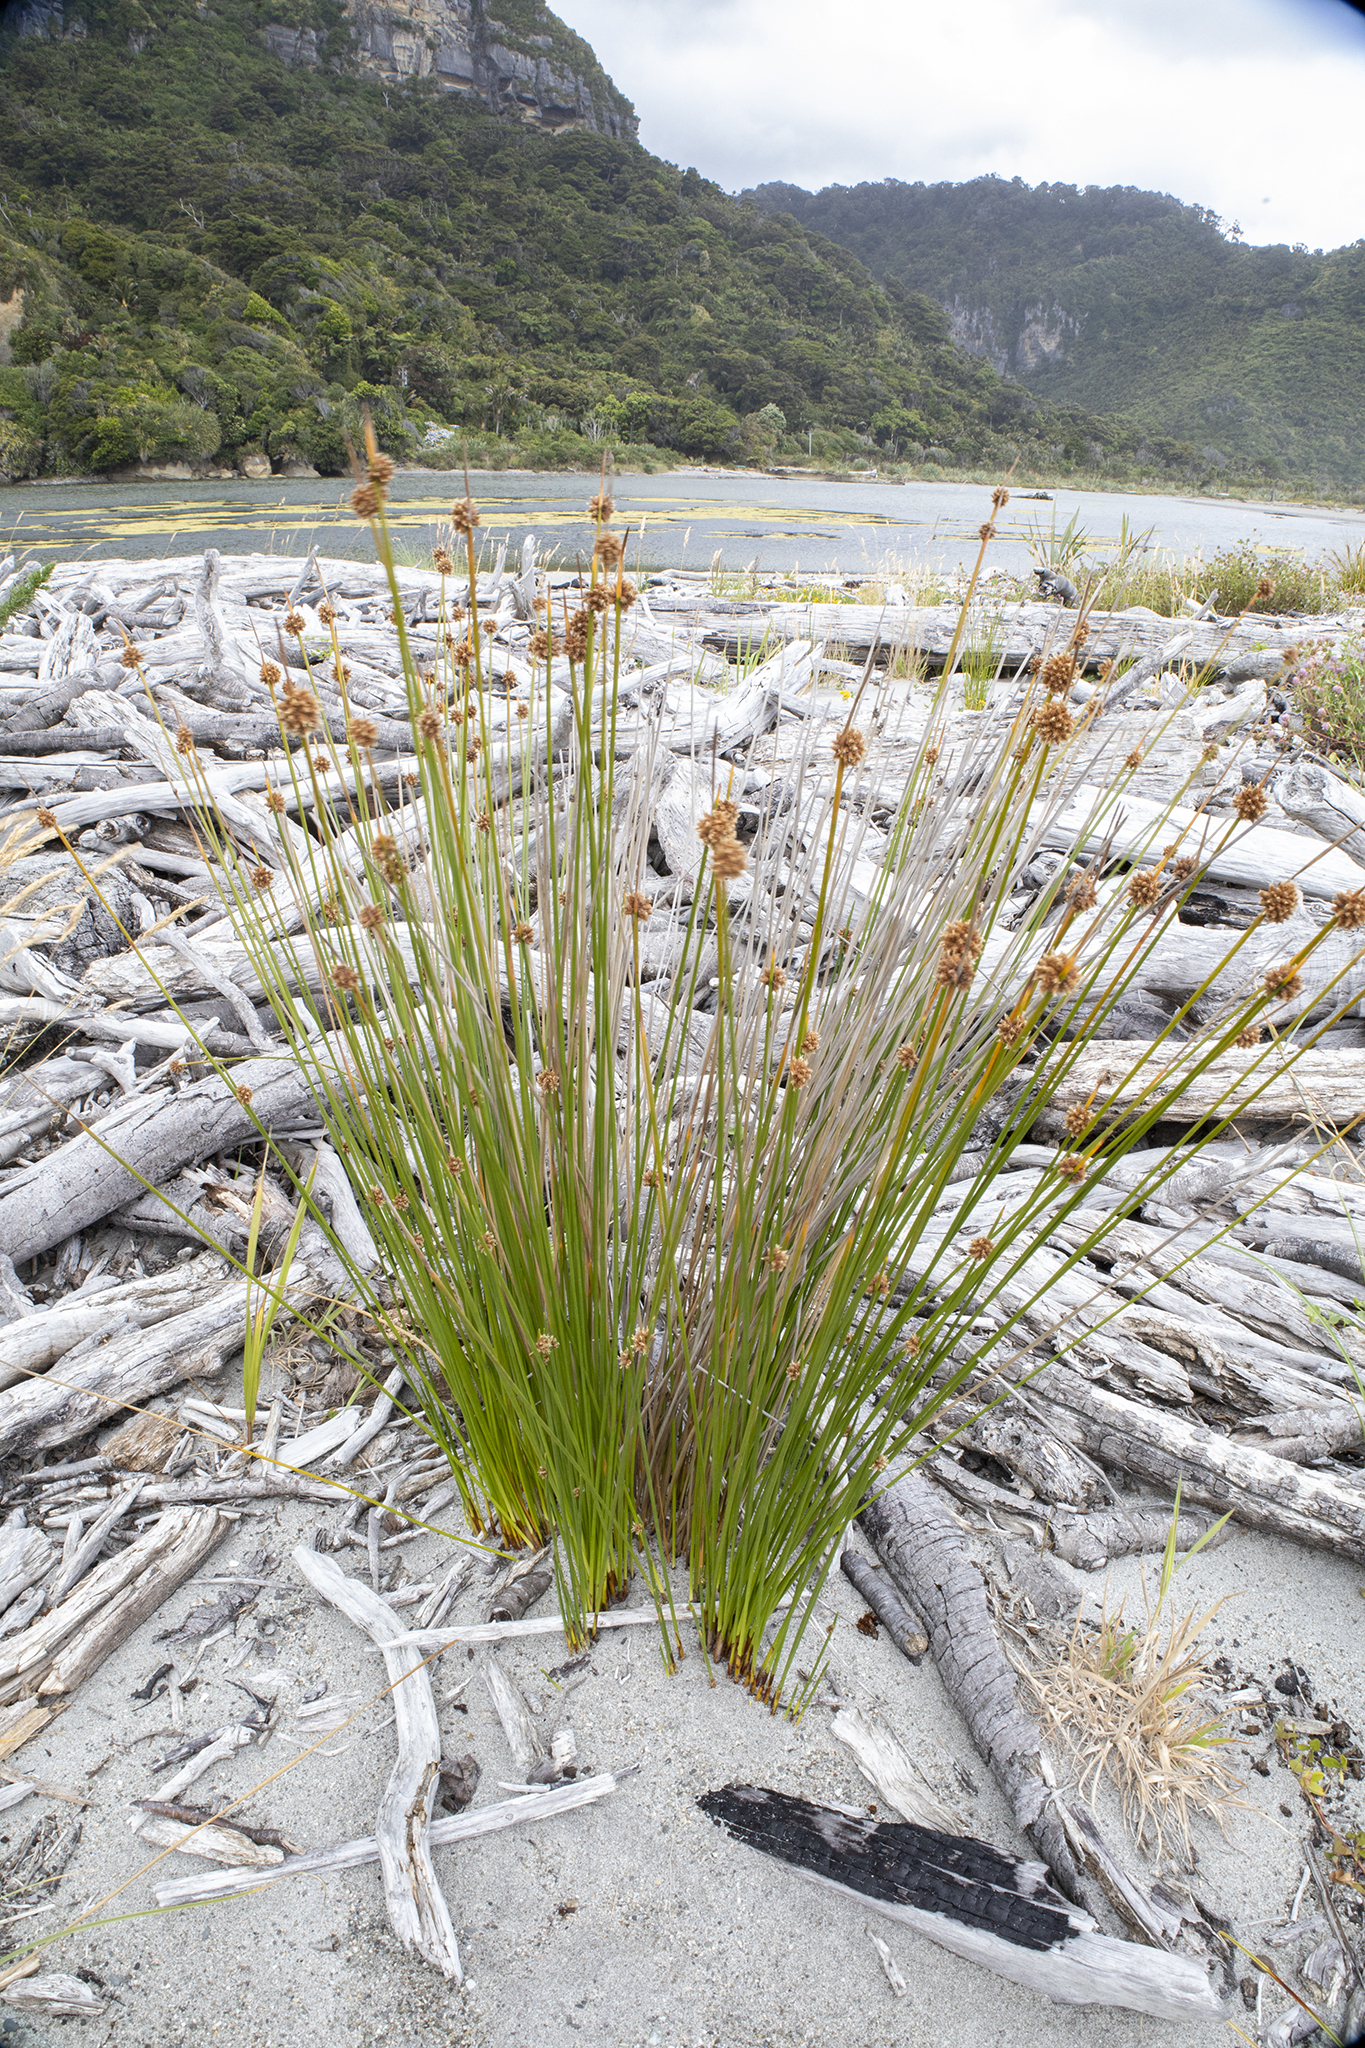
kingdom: Plantae
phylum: Tracheophyta
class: Liliopsida
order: Poales
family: Cyperaceae
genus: Ficinia
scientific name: Ficinia nodosa
